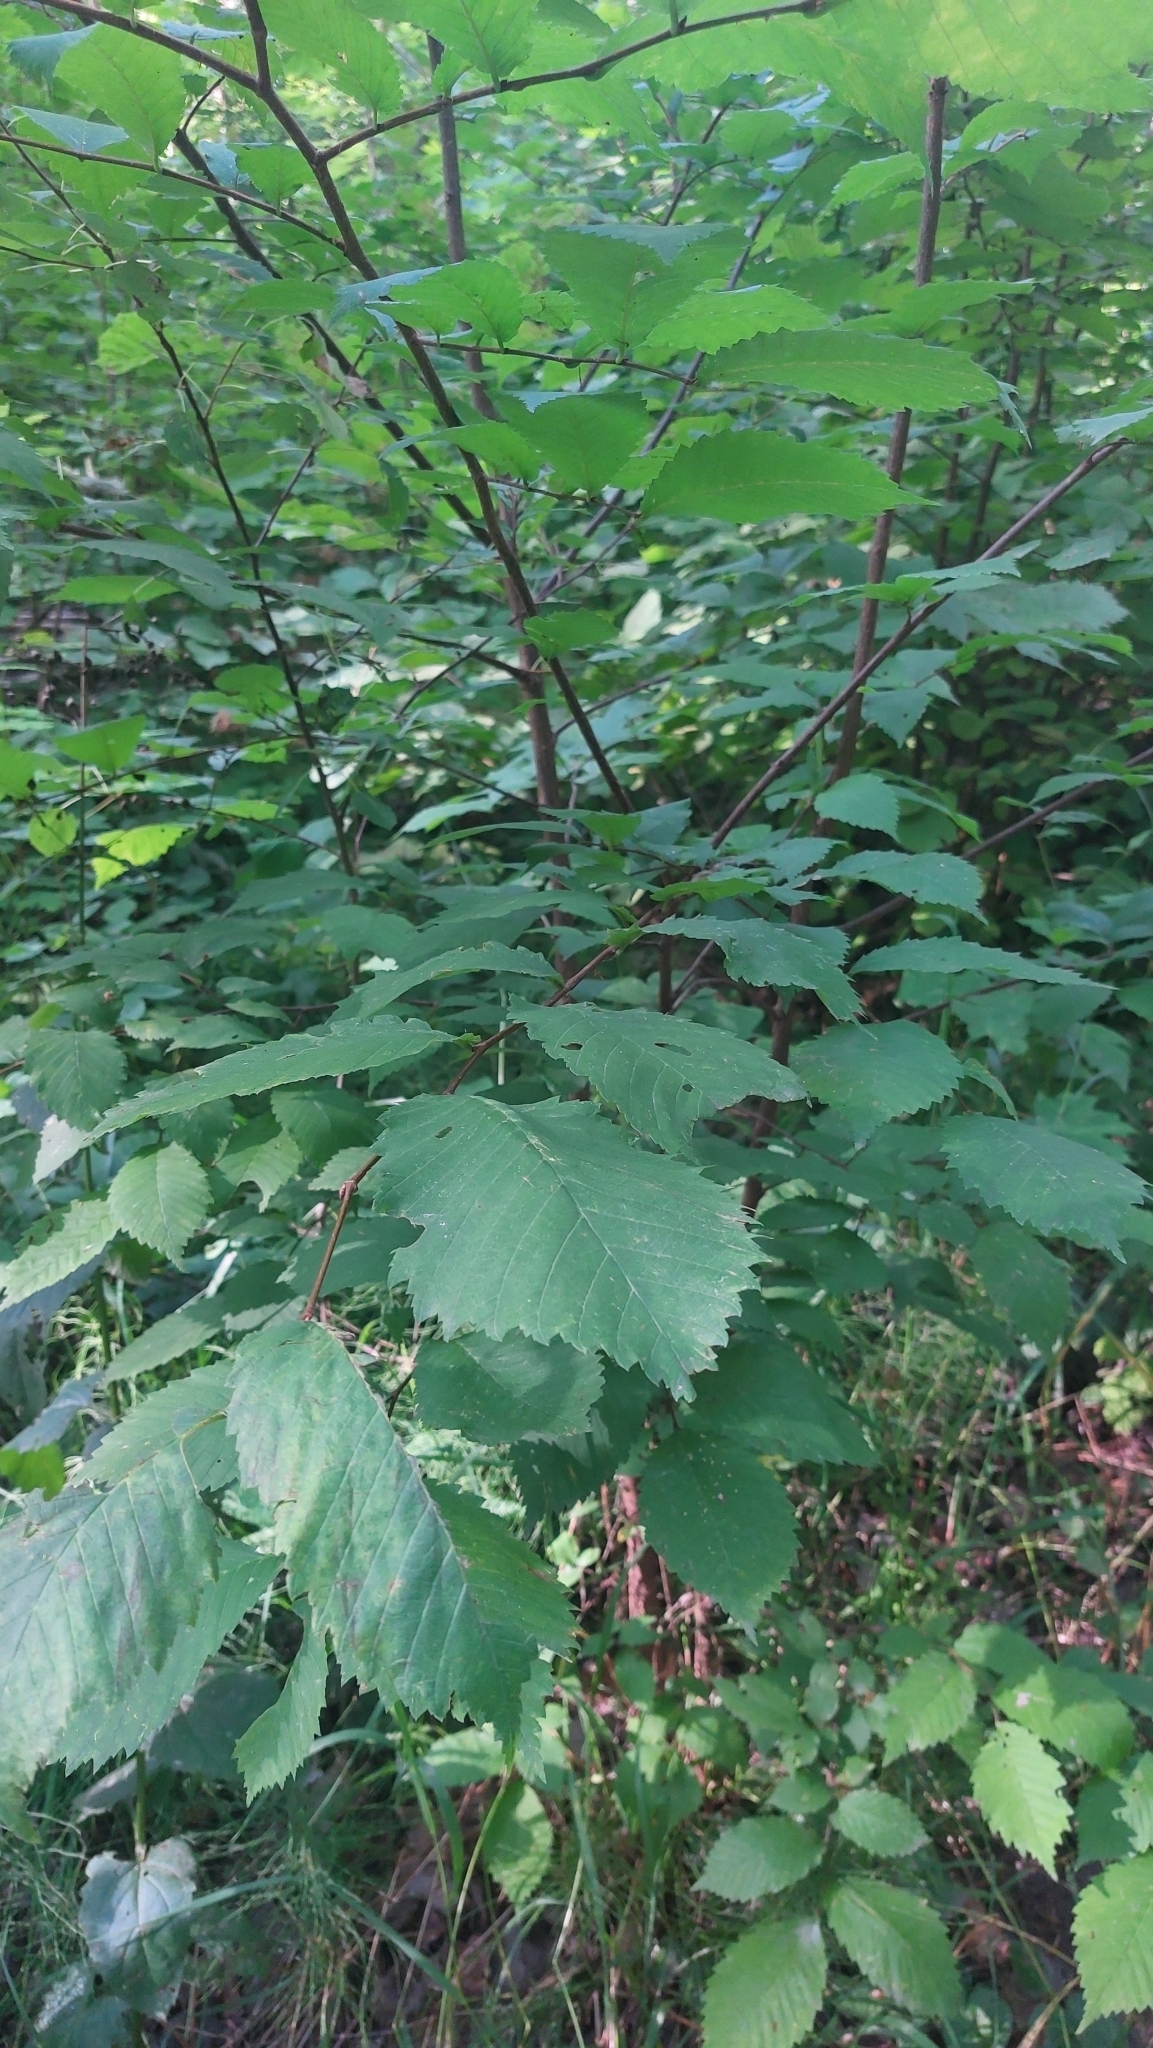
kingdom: Plantae
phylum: Tracheophyta
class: Magnoliopsida
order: Rosales
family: Ulmaceae
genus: Ulmus
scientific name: Ulmus laevis
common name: European white-elm
